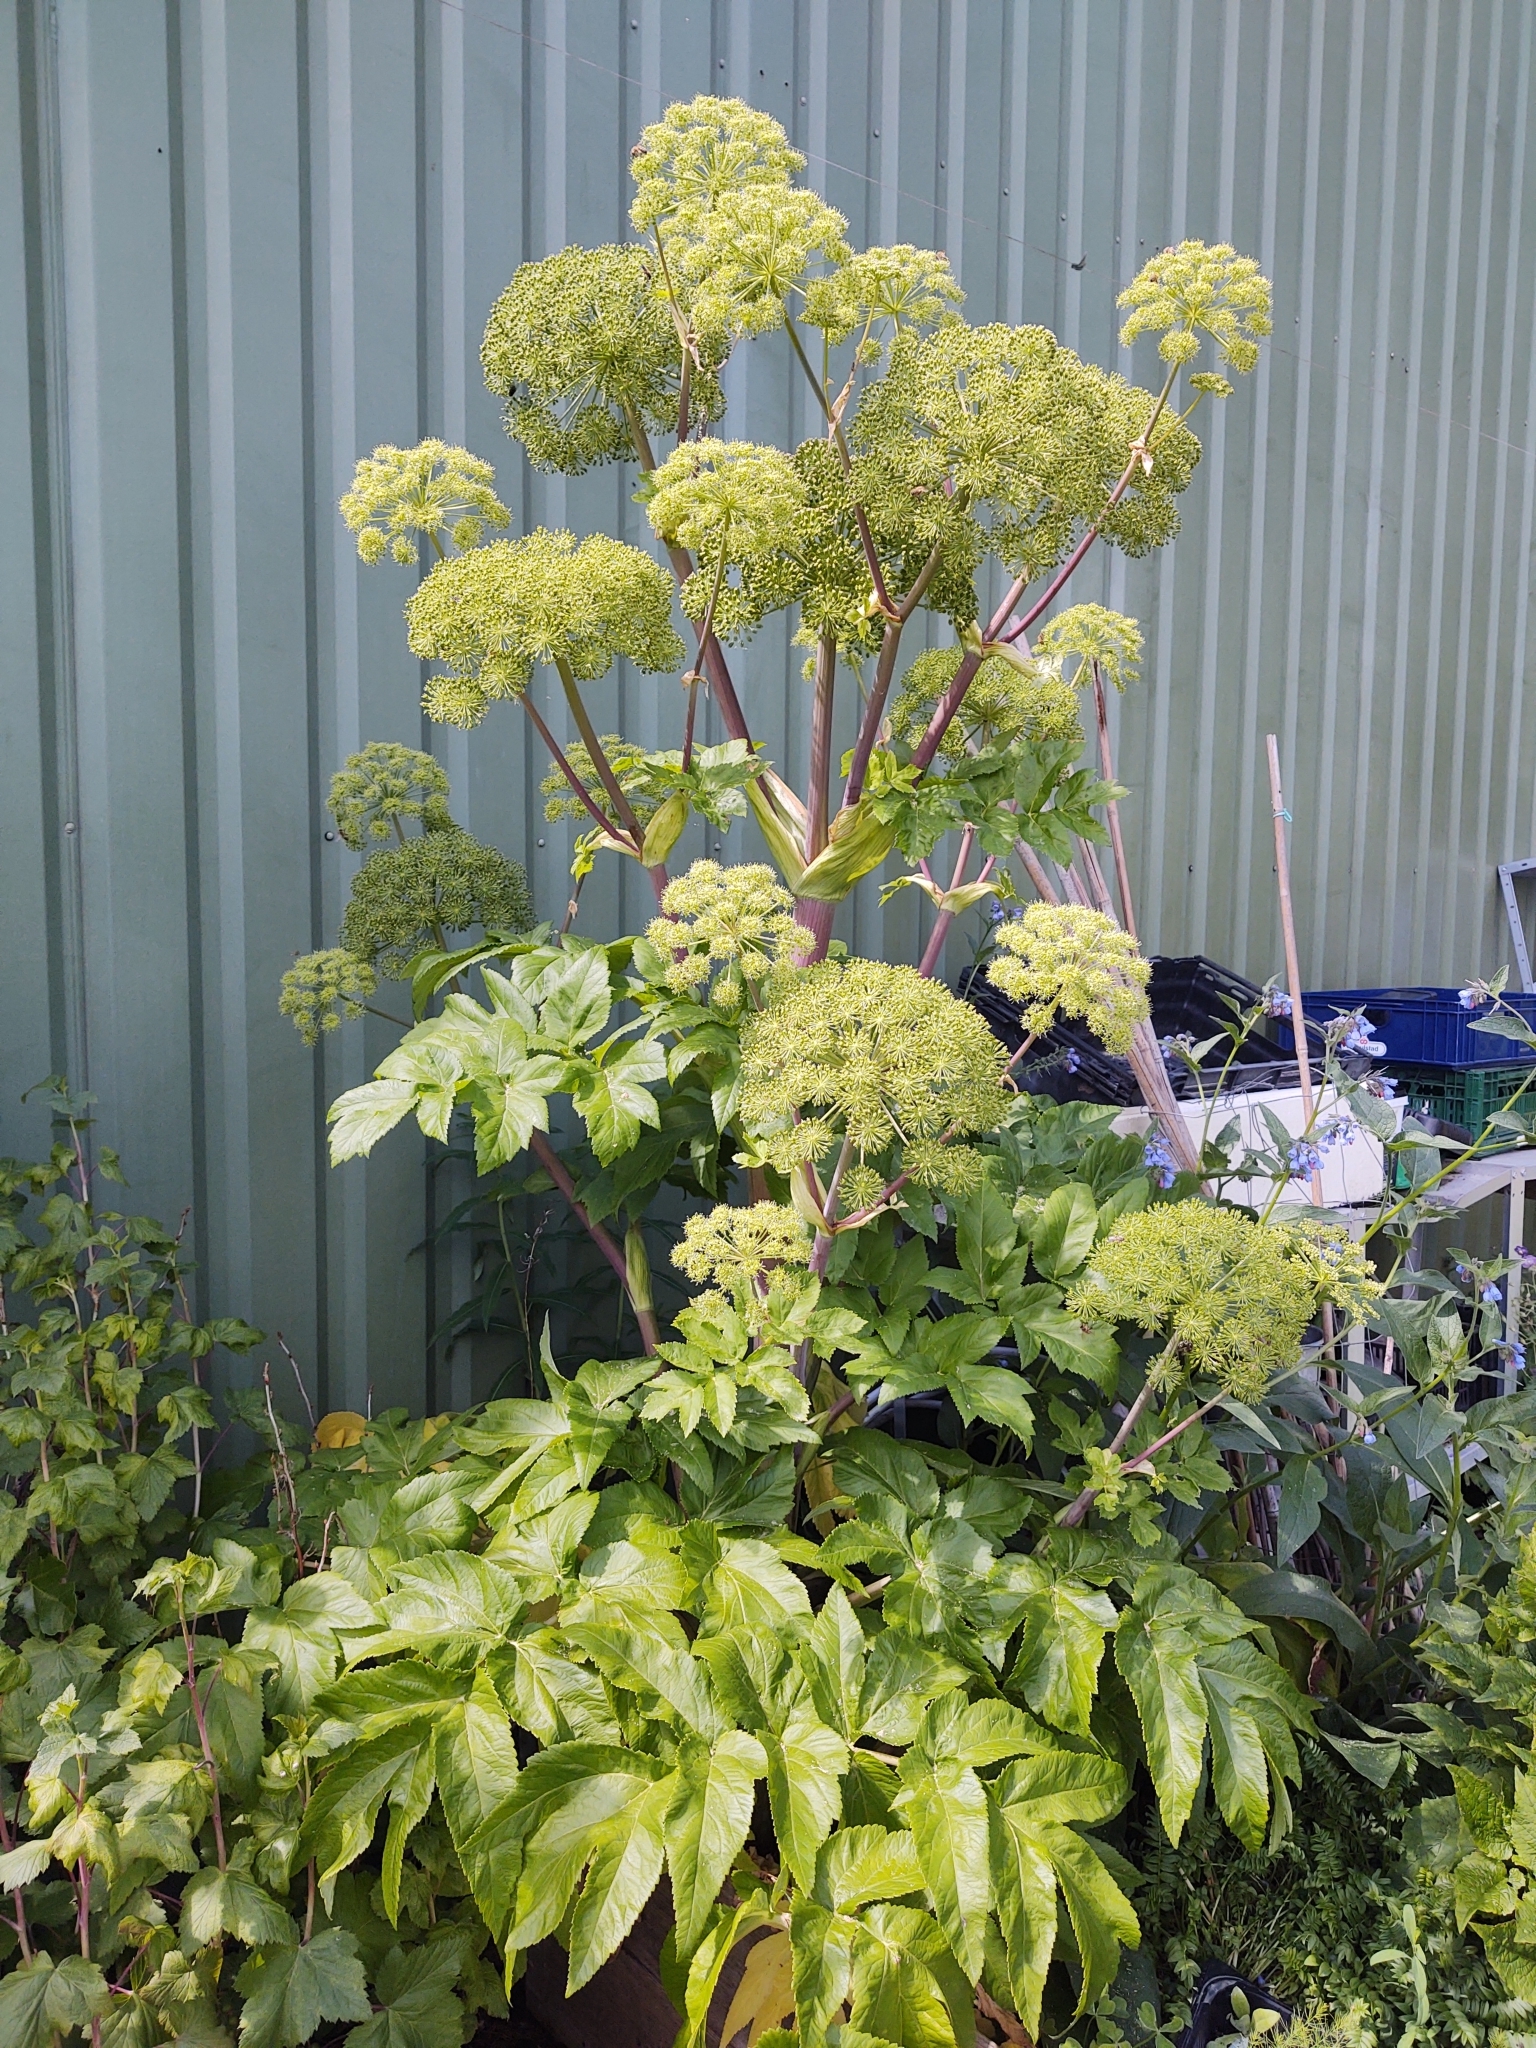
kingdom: Plantae
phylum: Tracheophyta
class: Magnoliopsida
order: Apiales
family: Apiaceae
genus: Angelica
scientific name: Angelica archangelica
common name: Garden angelica
